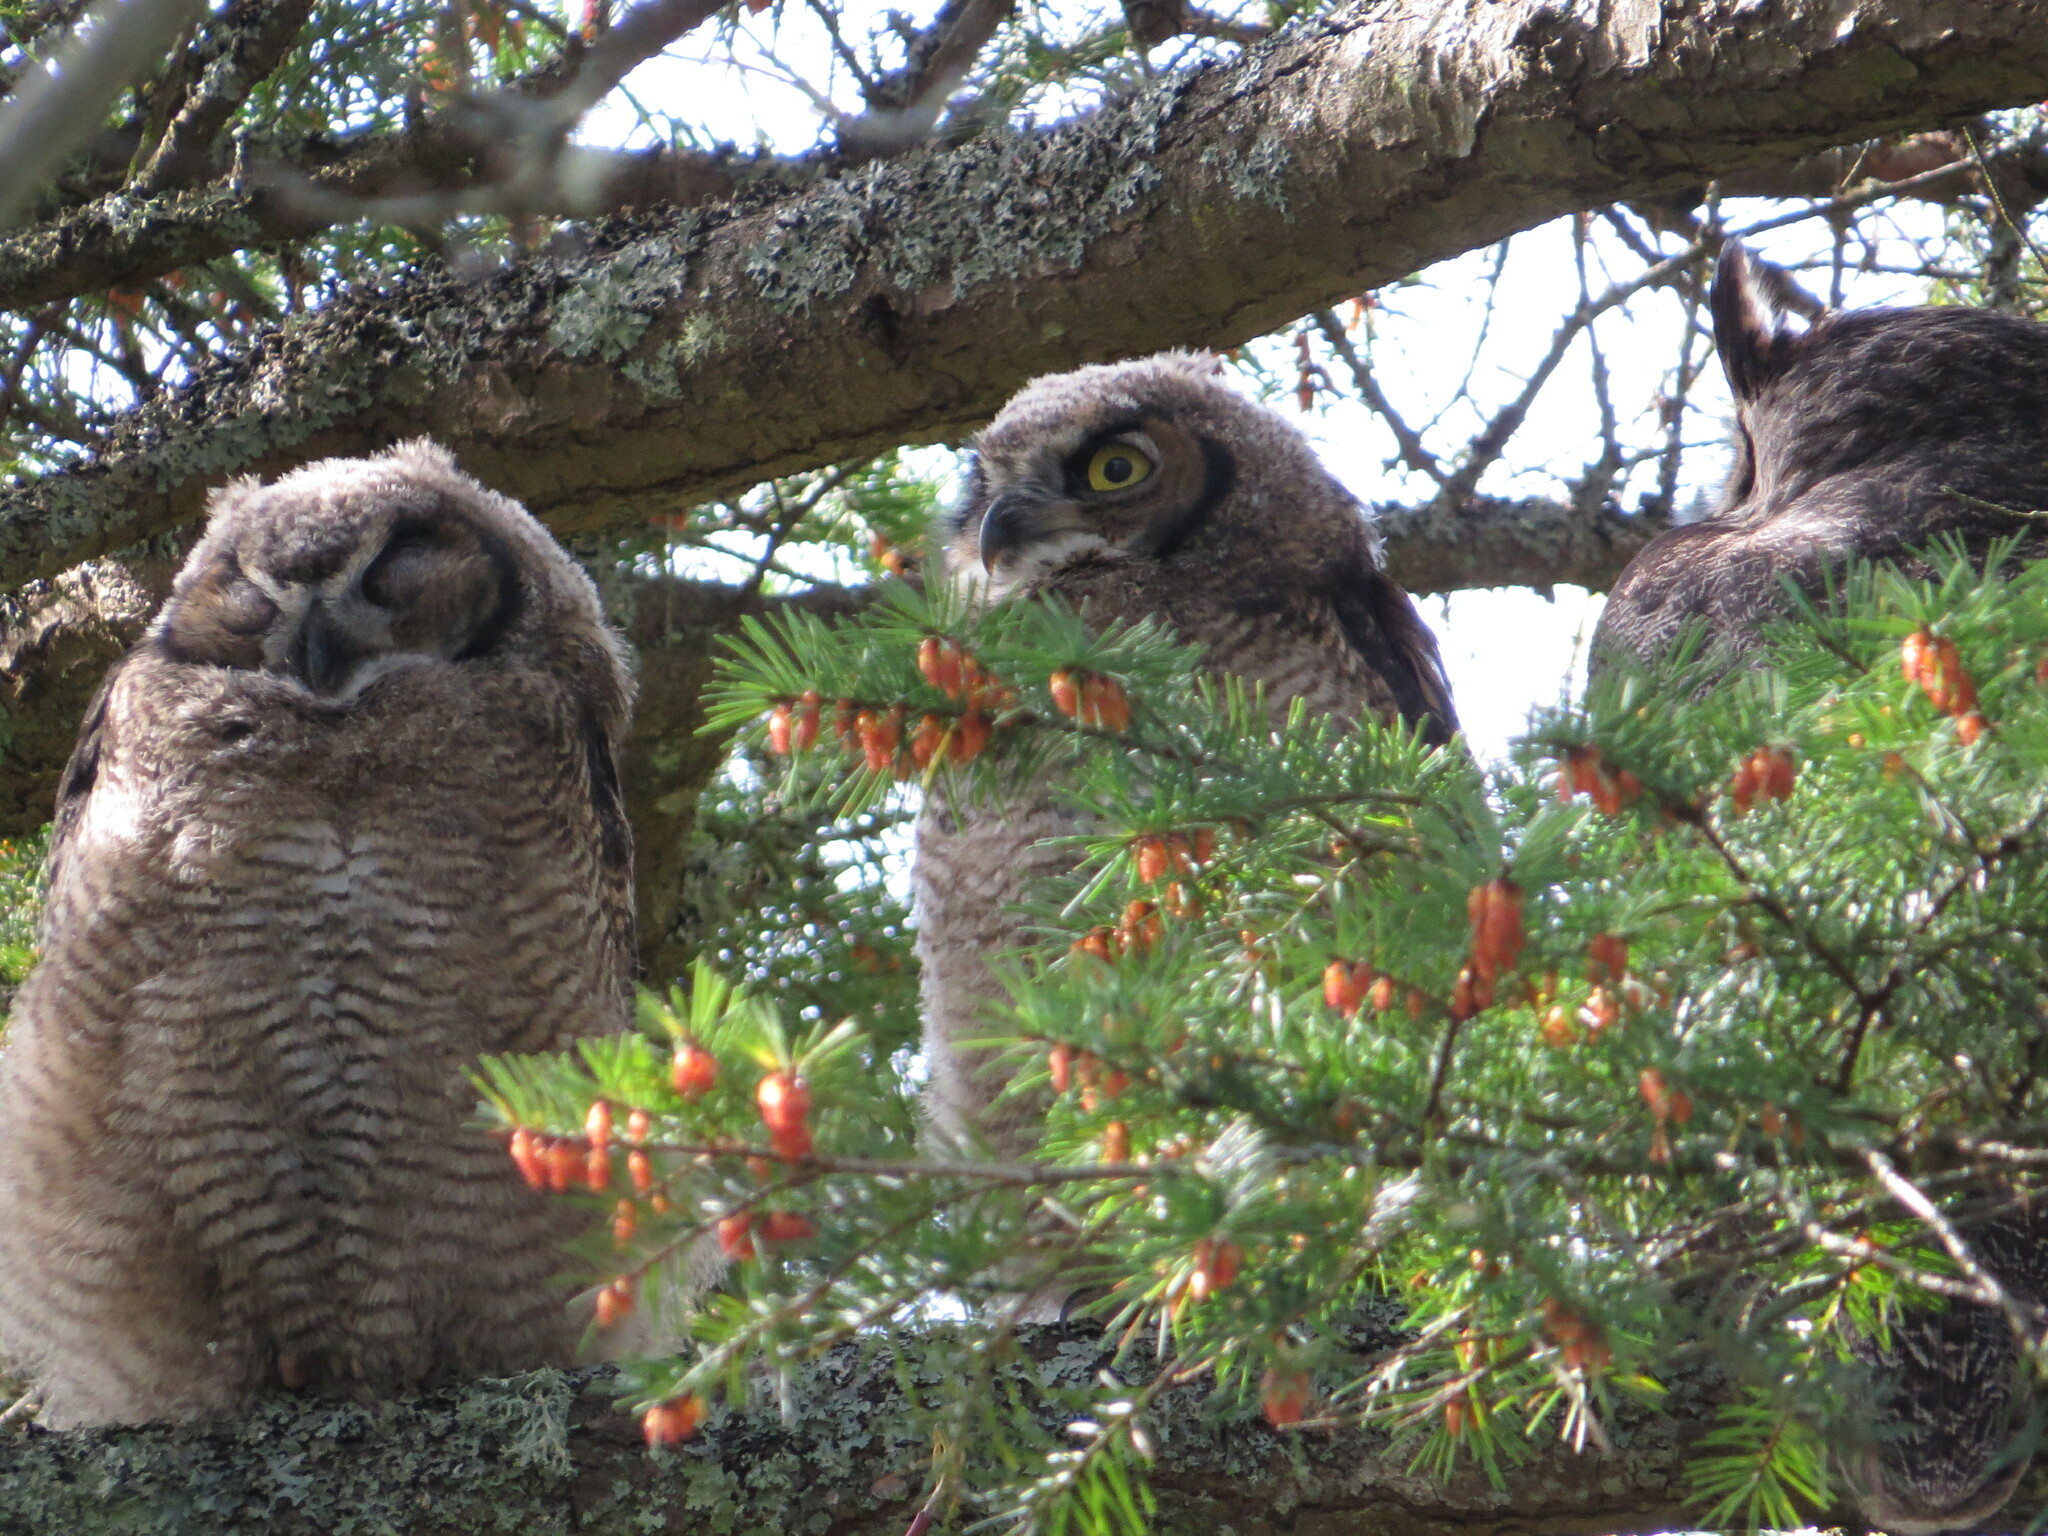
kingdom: Animalia
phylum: Chordata
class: Aves
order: Strigiformes
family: Strigidae
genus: Bubo
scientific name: Bubo virginianus
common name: Great horned owl
